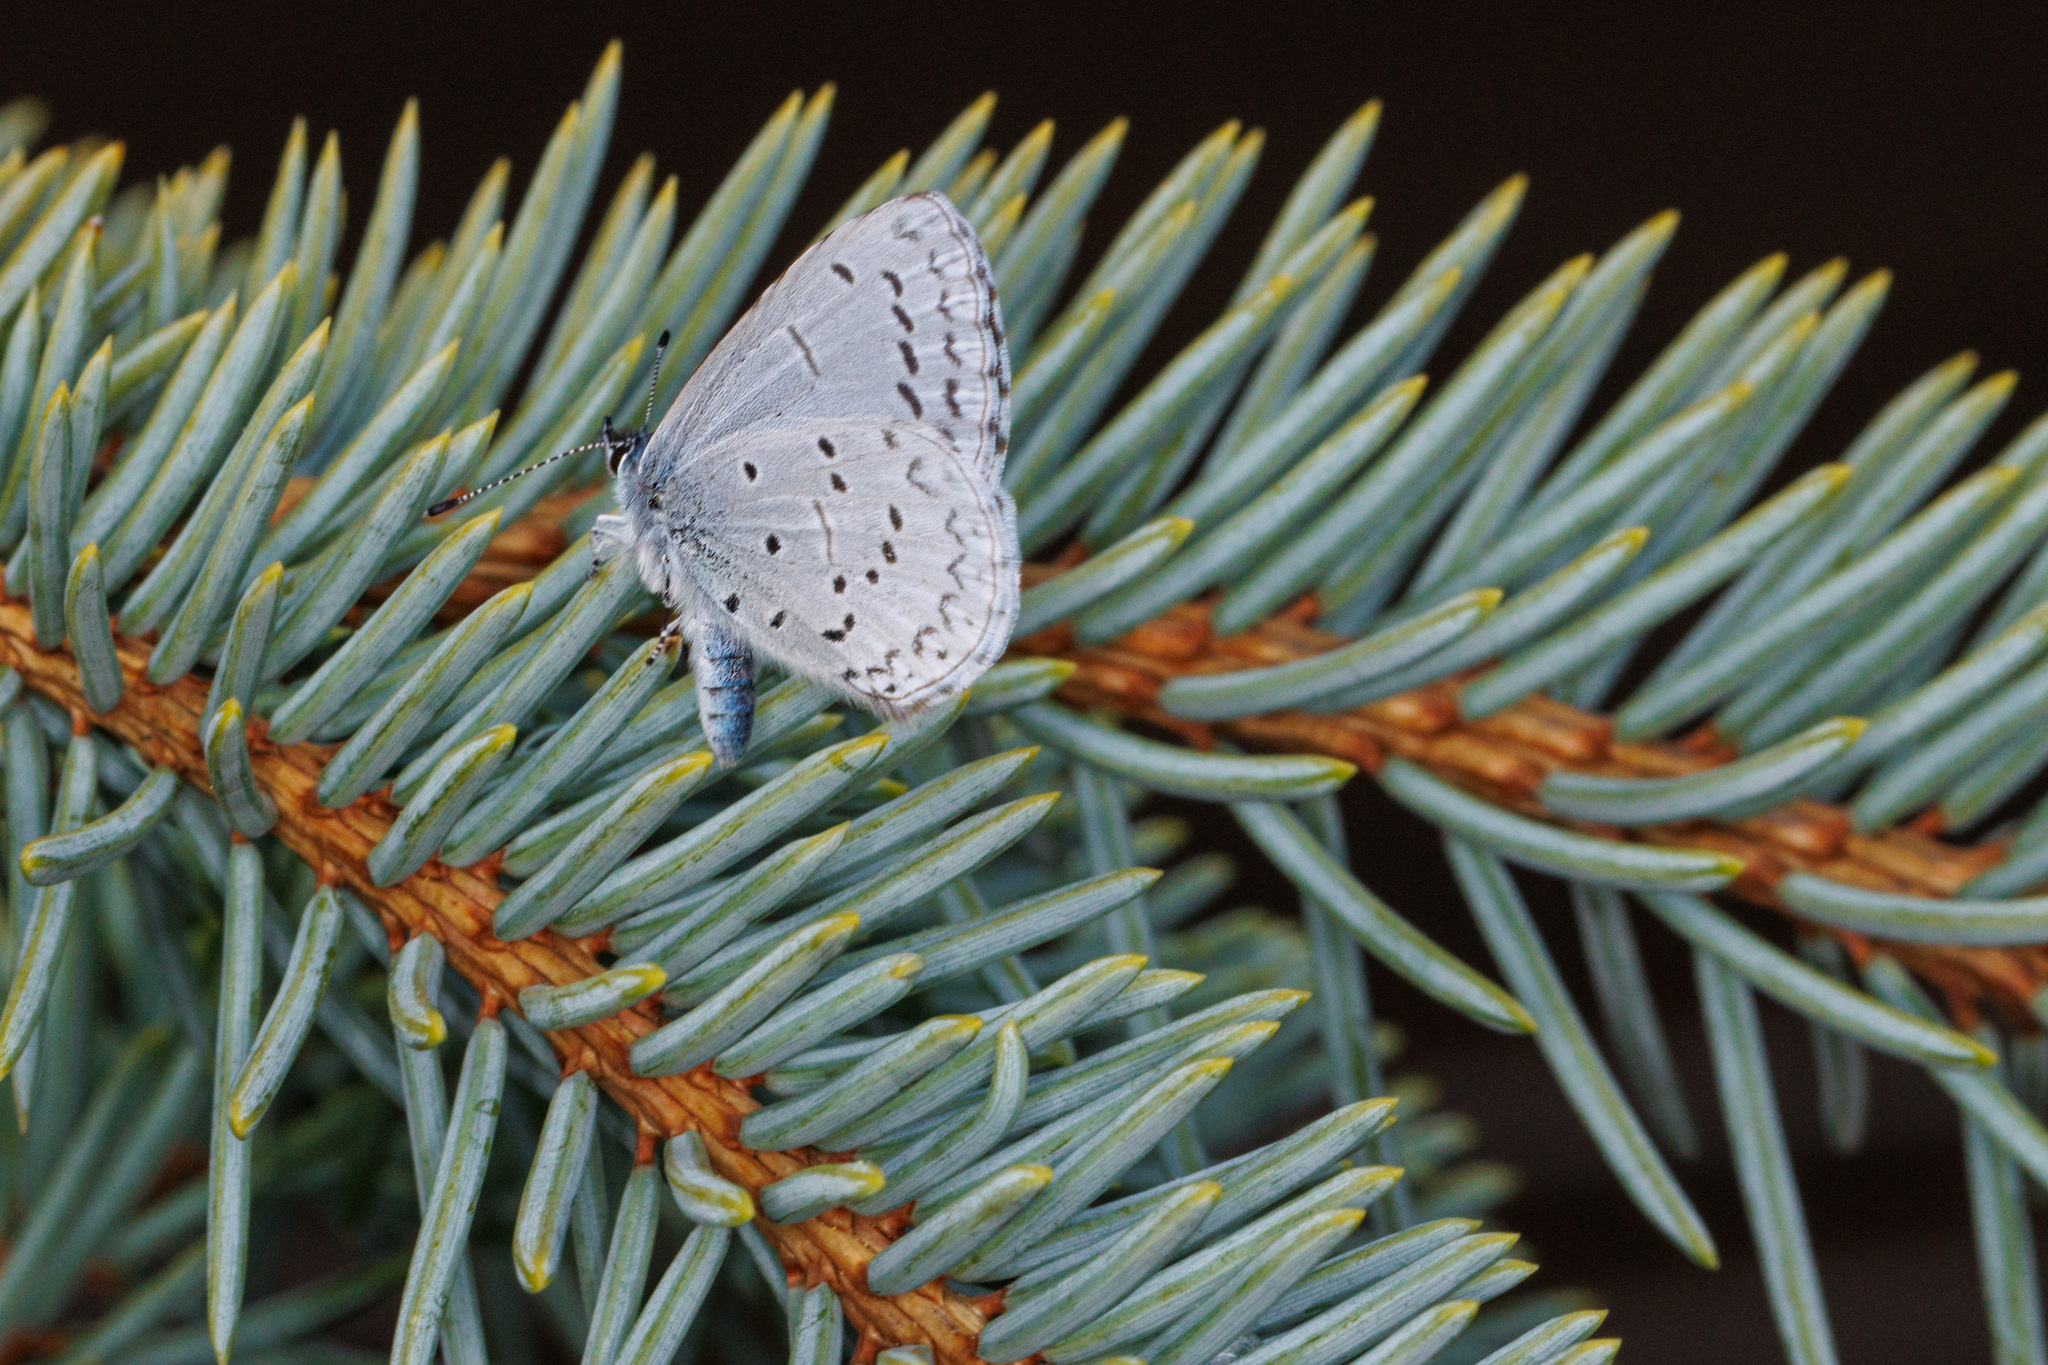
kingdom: Animalia
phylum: Arthropoda
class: Insecta
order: Lepidoptera
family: Lycaenidae
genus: Celastrina
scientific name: Celastrina ladon
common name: Spring azure
